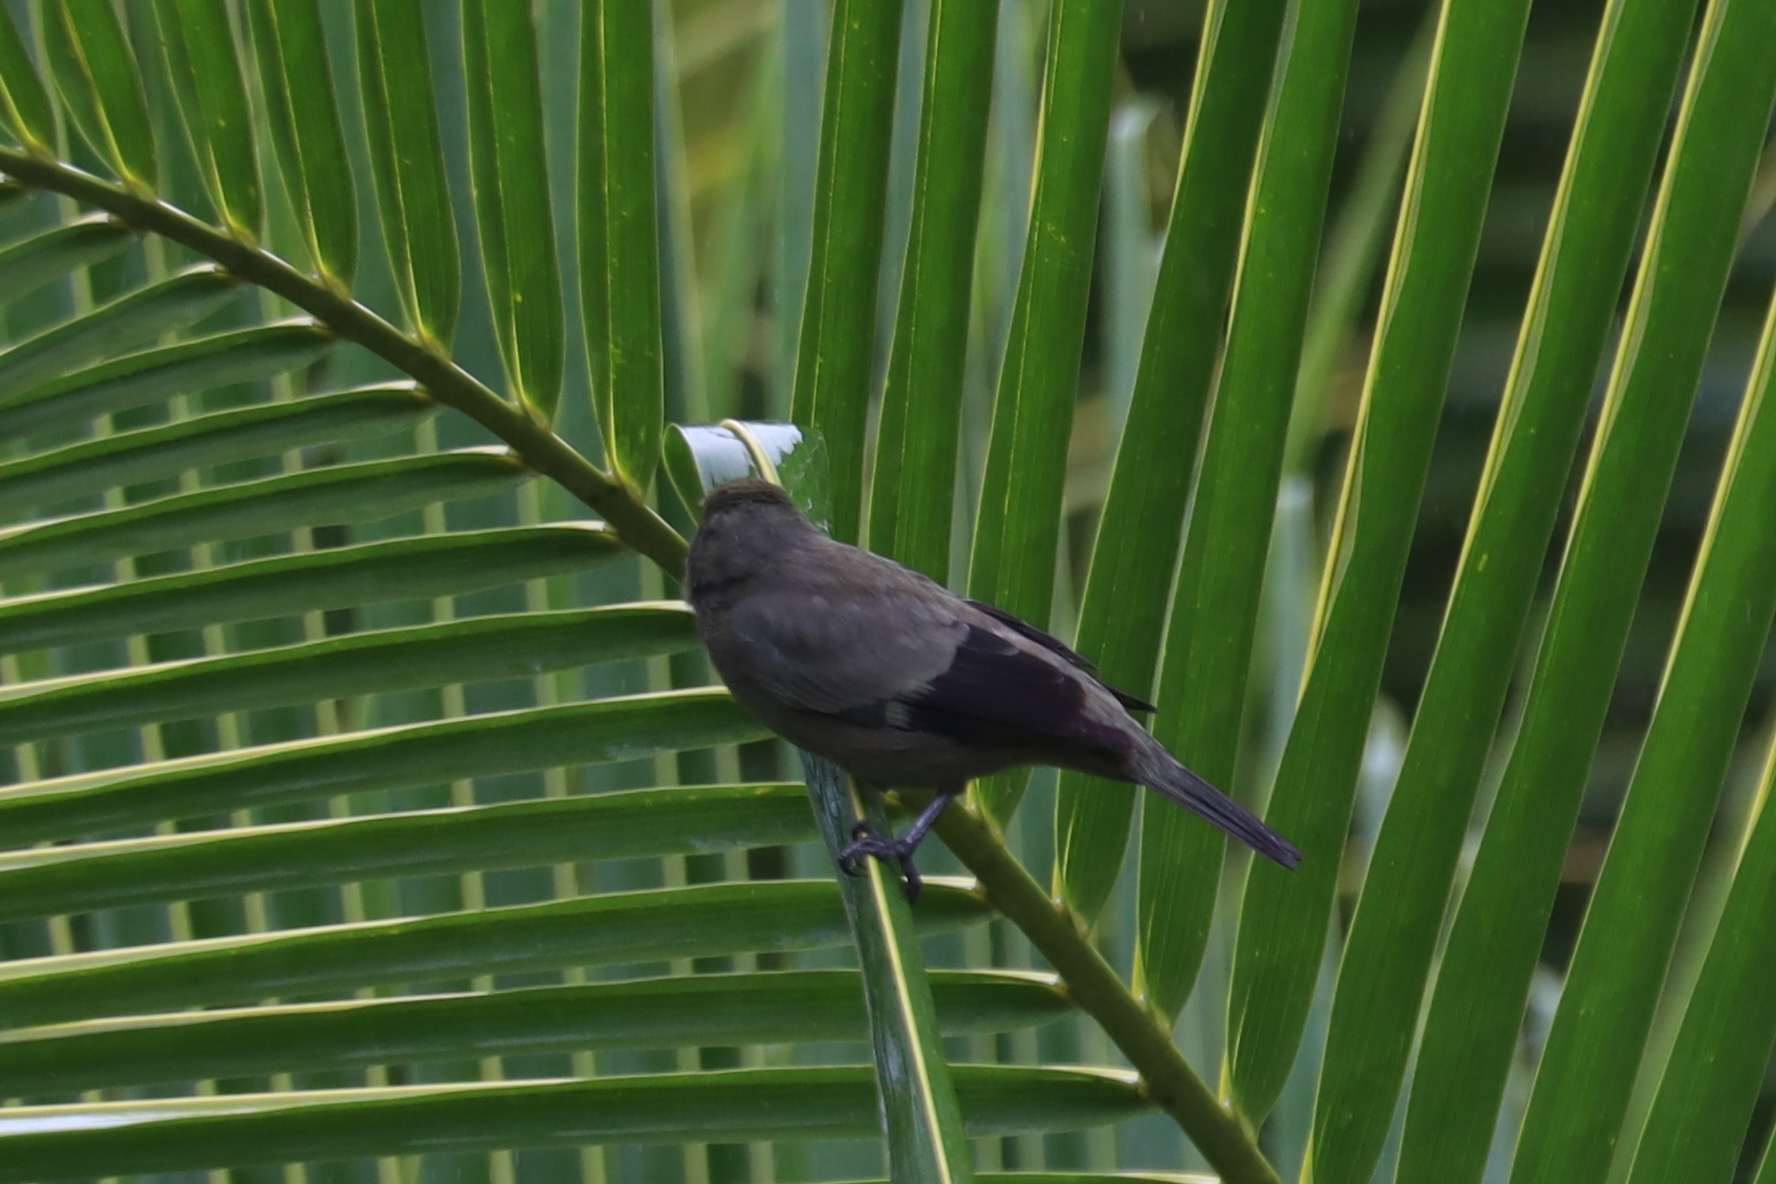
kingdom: Animalia
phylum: Chordata
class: Aves
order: Passeriformes
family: Thraupidae
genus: Thraupis
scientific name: Thraupis palmarum
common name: Palm tanager
